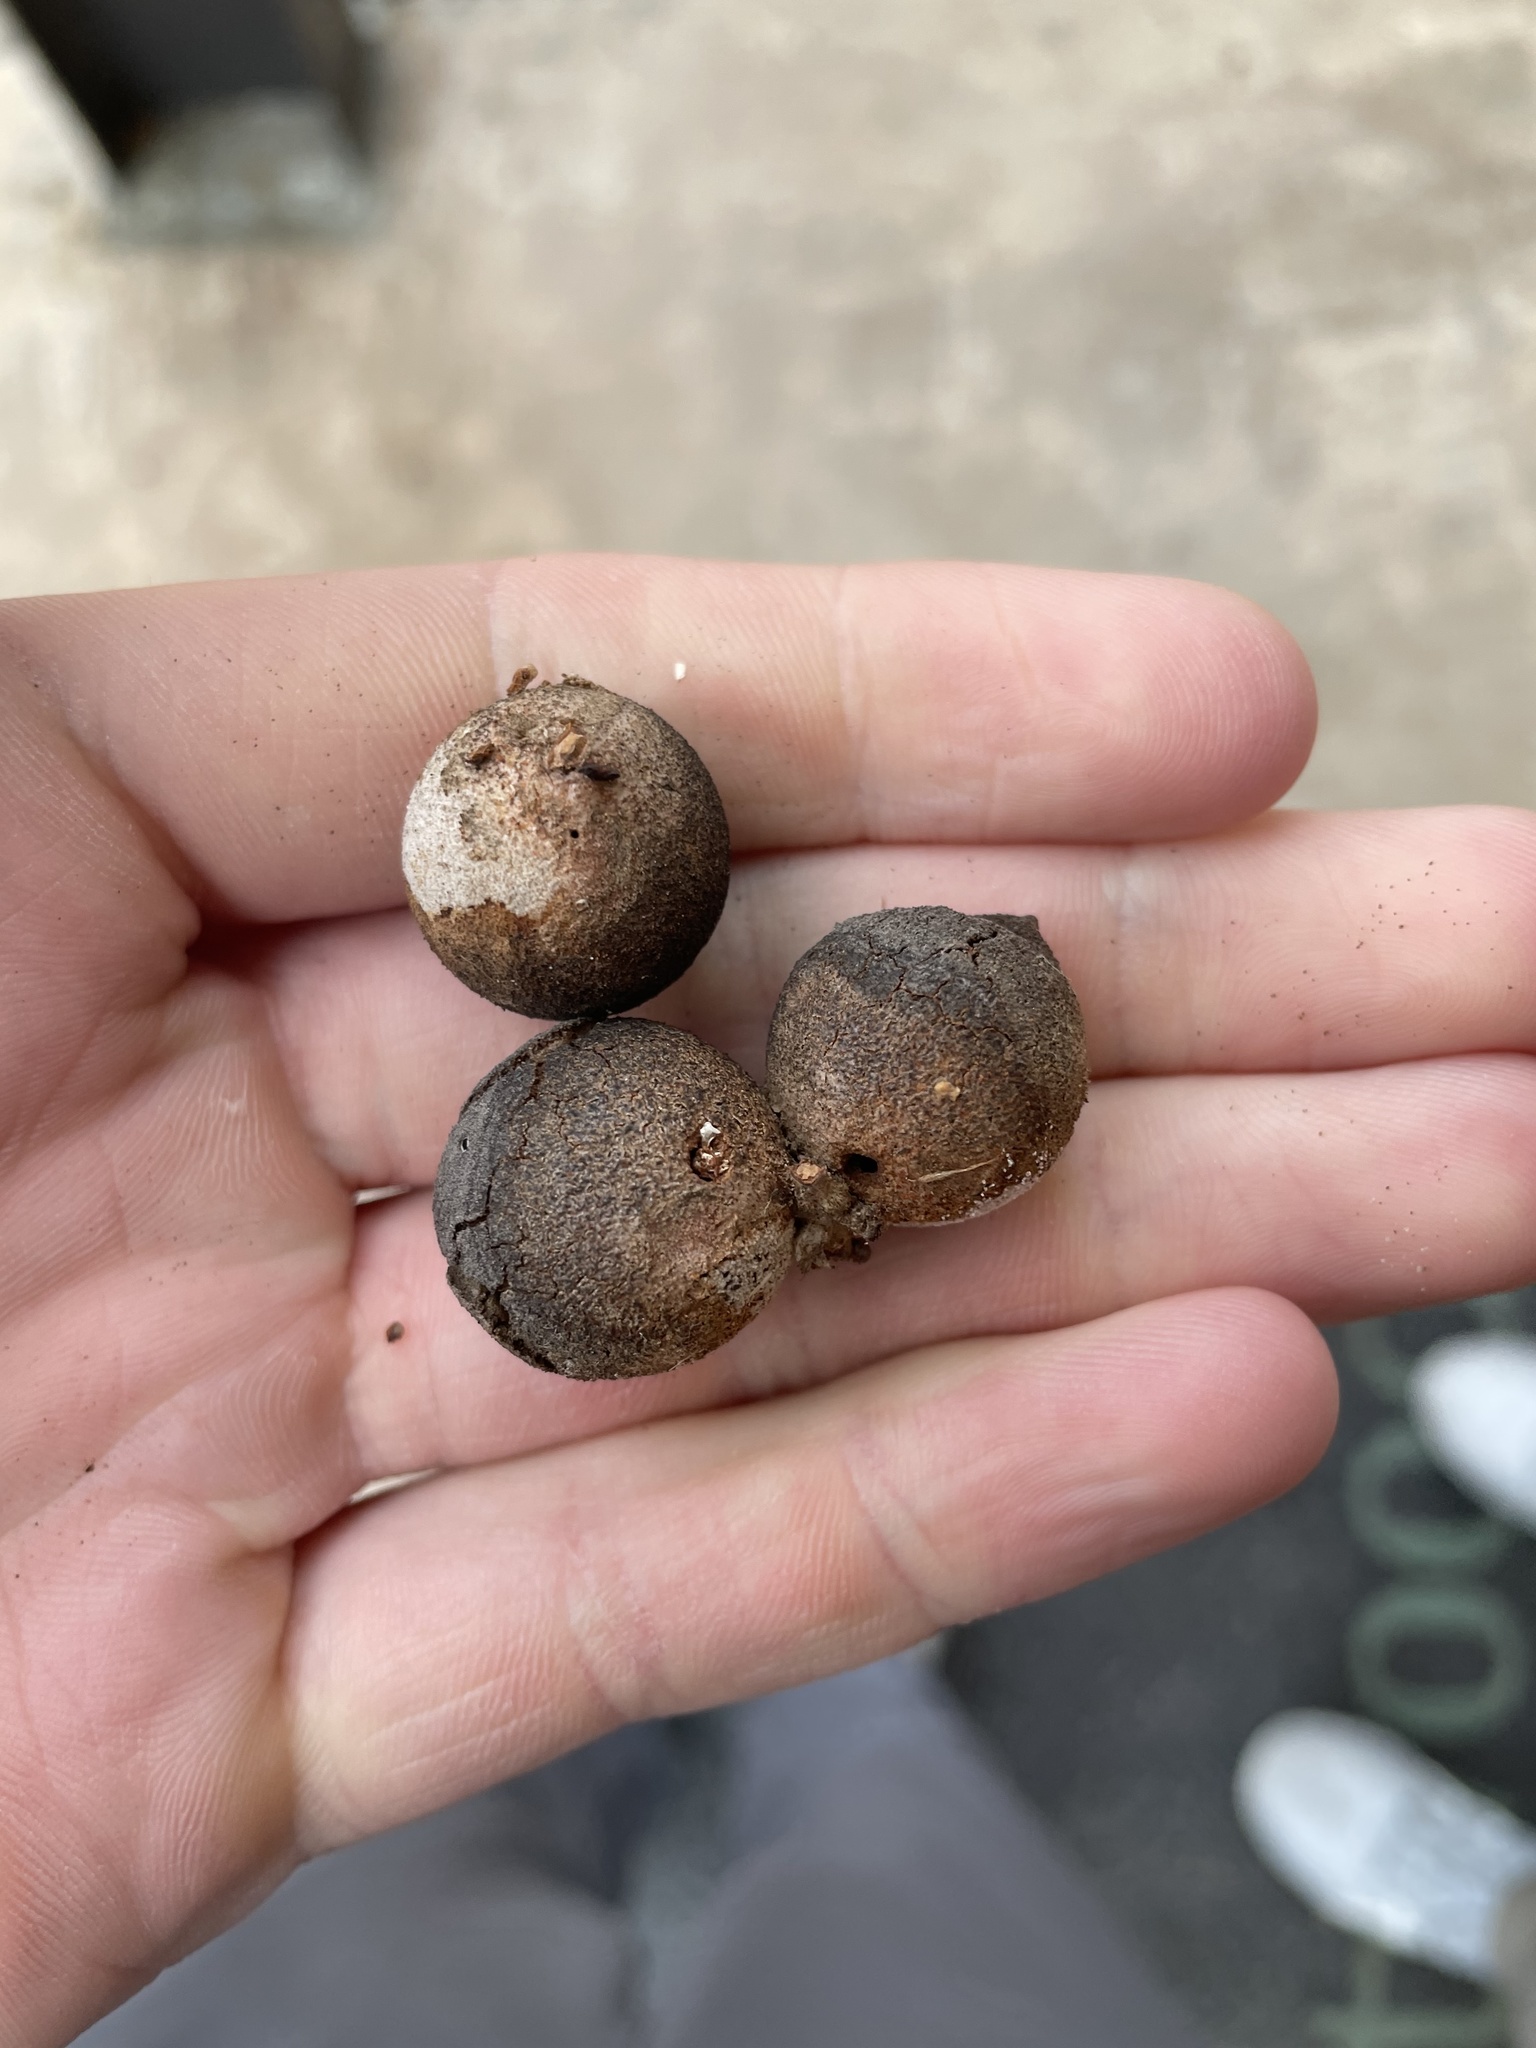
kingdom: Animalia
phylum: Arthropoda
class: Insecta
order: Hymenoptera
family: Cynipidae
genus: Disholcaspis
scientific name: Disholcaspis
